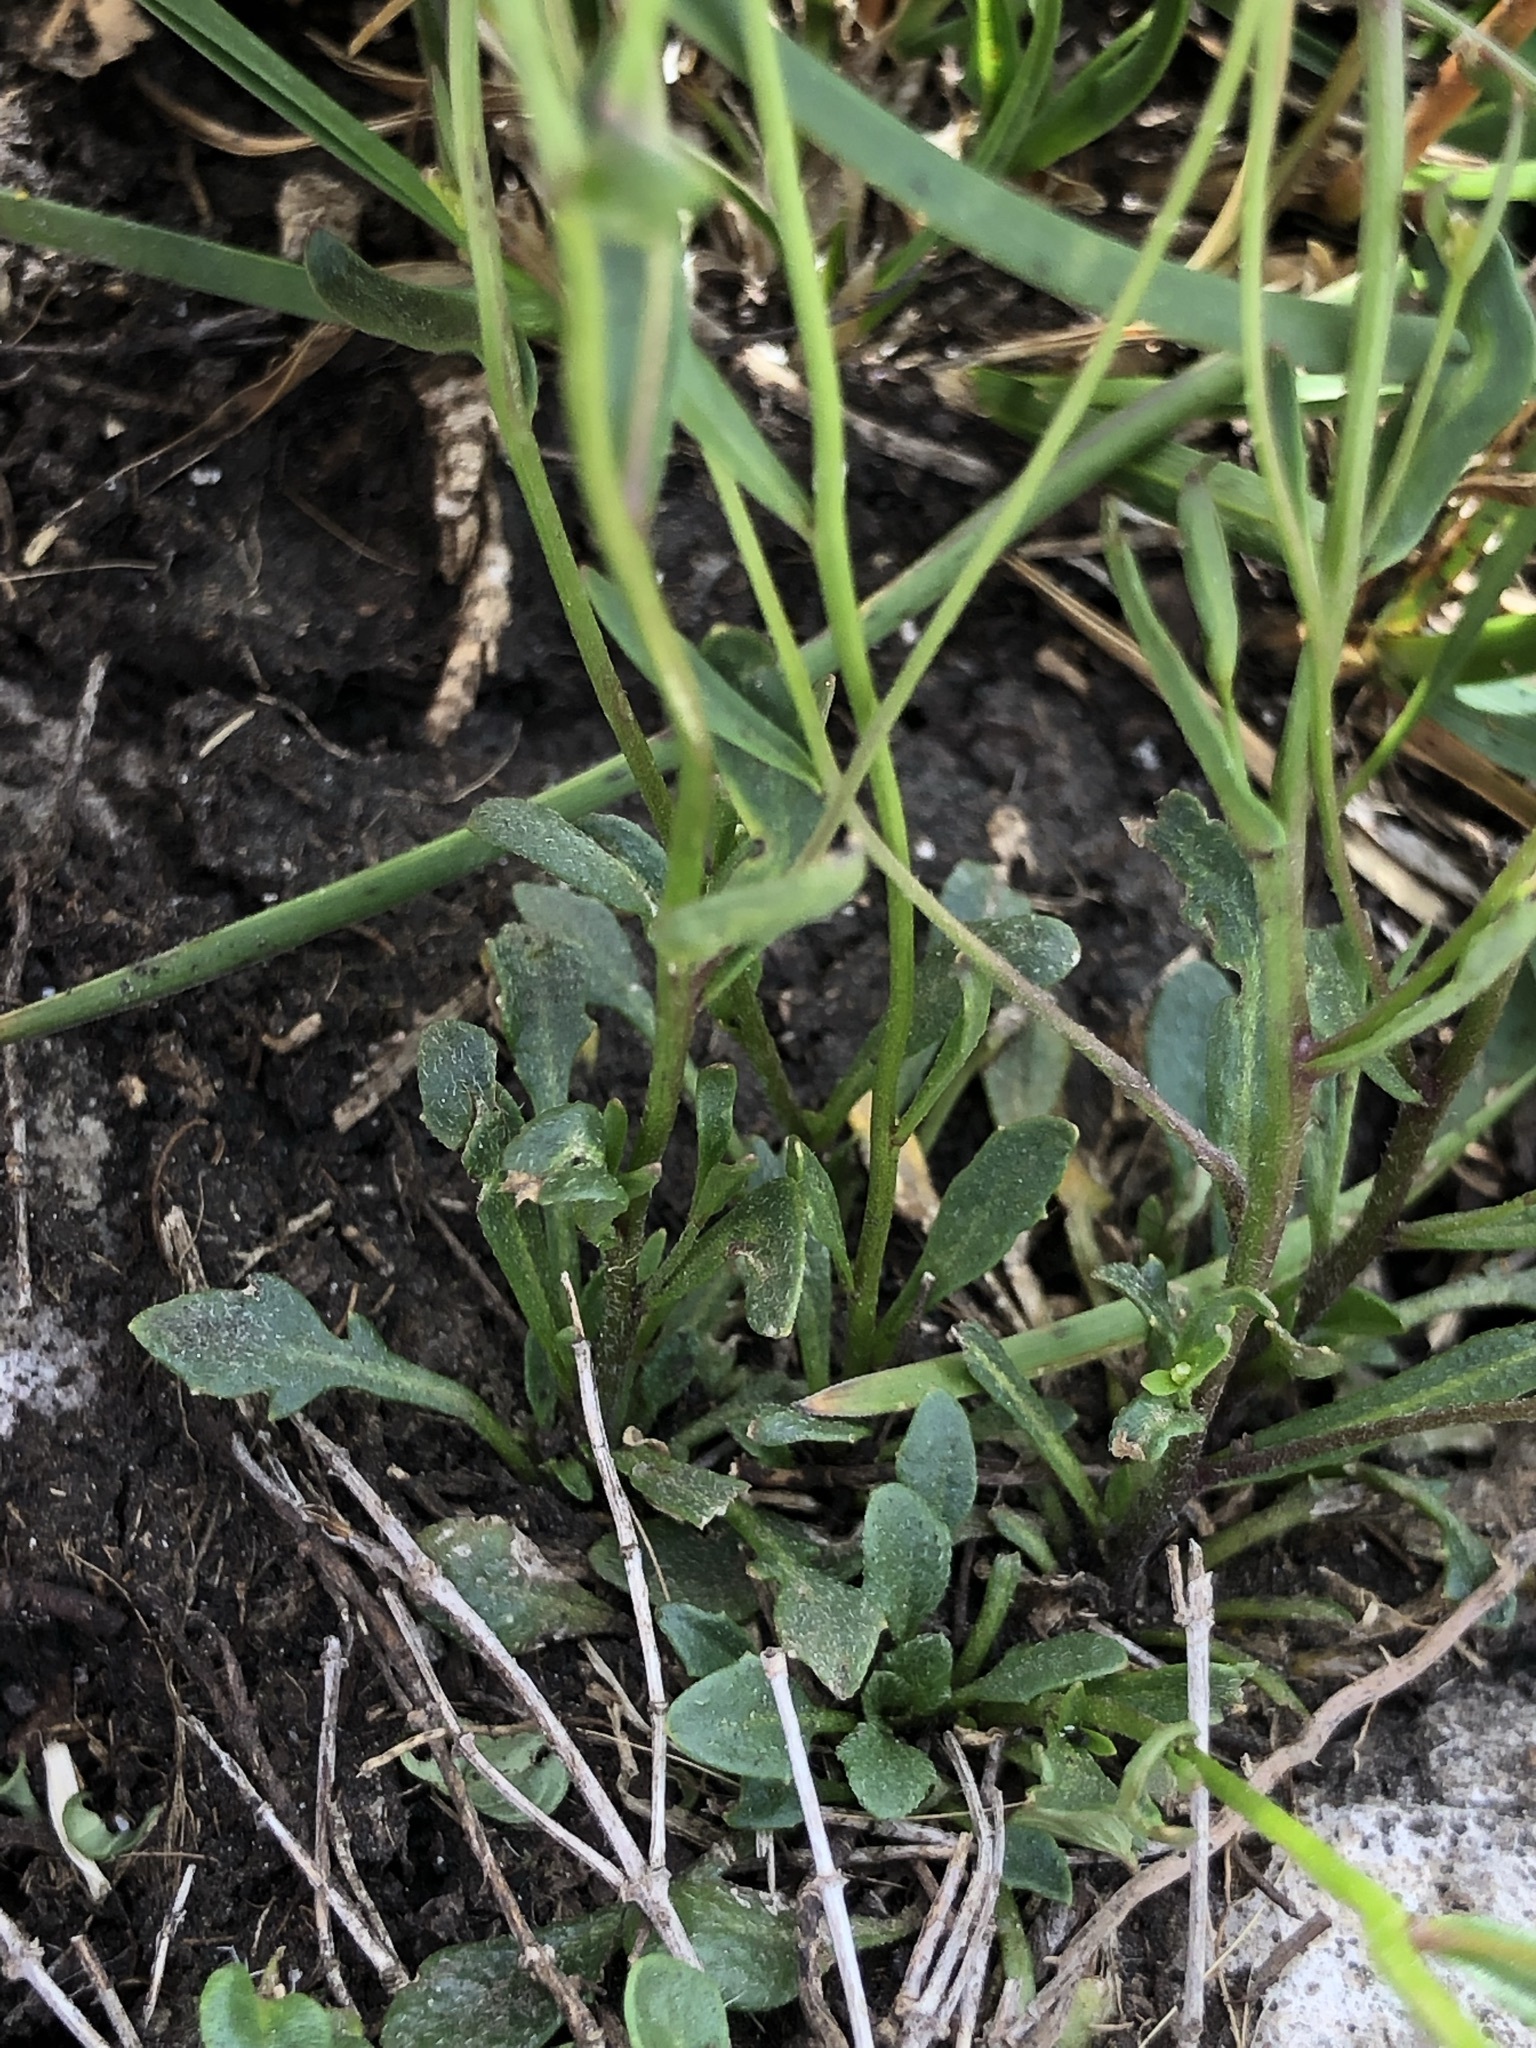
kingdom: Plantae
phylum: Tracheophyta
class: Magnoliopsida
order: Brassicales
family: Brassicaceae
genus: Kernera
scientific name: Kernera saxatilis
